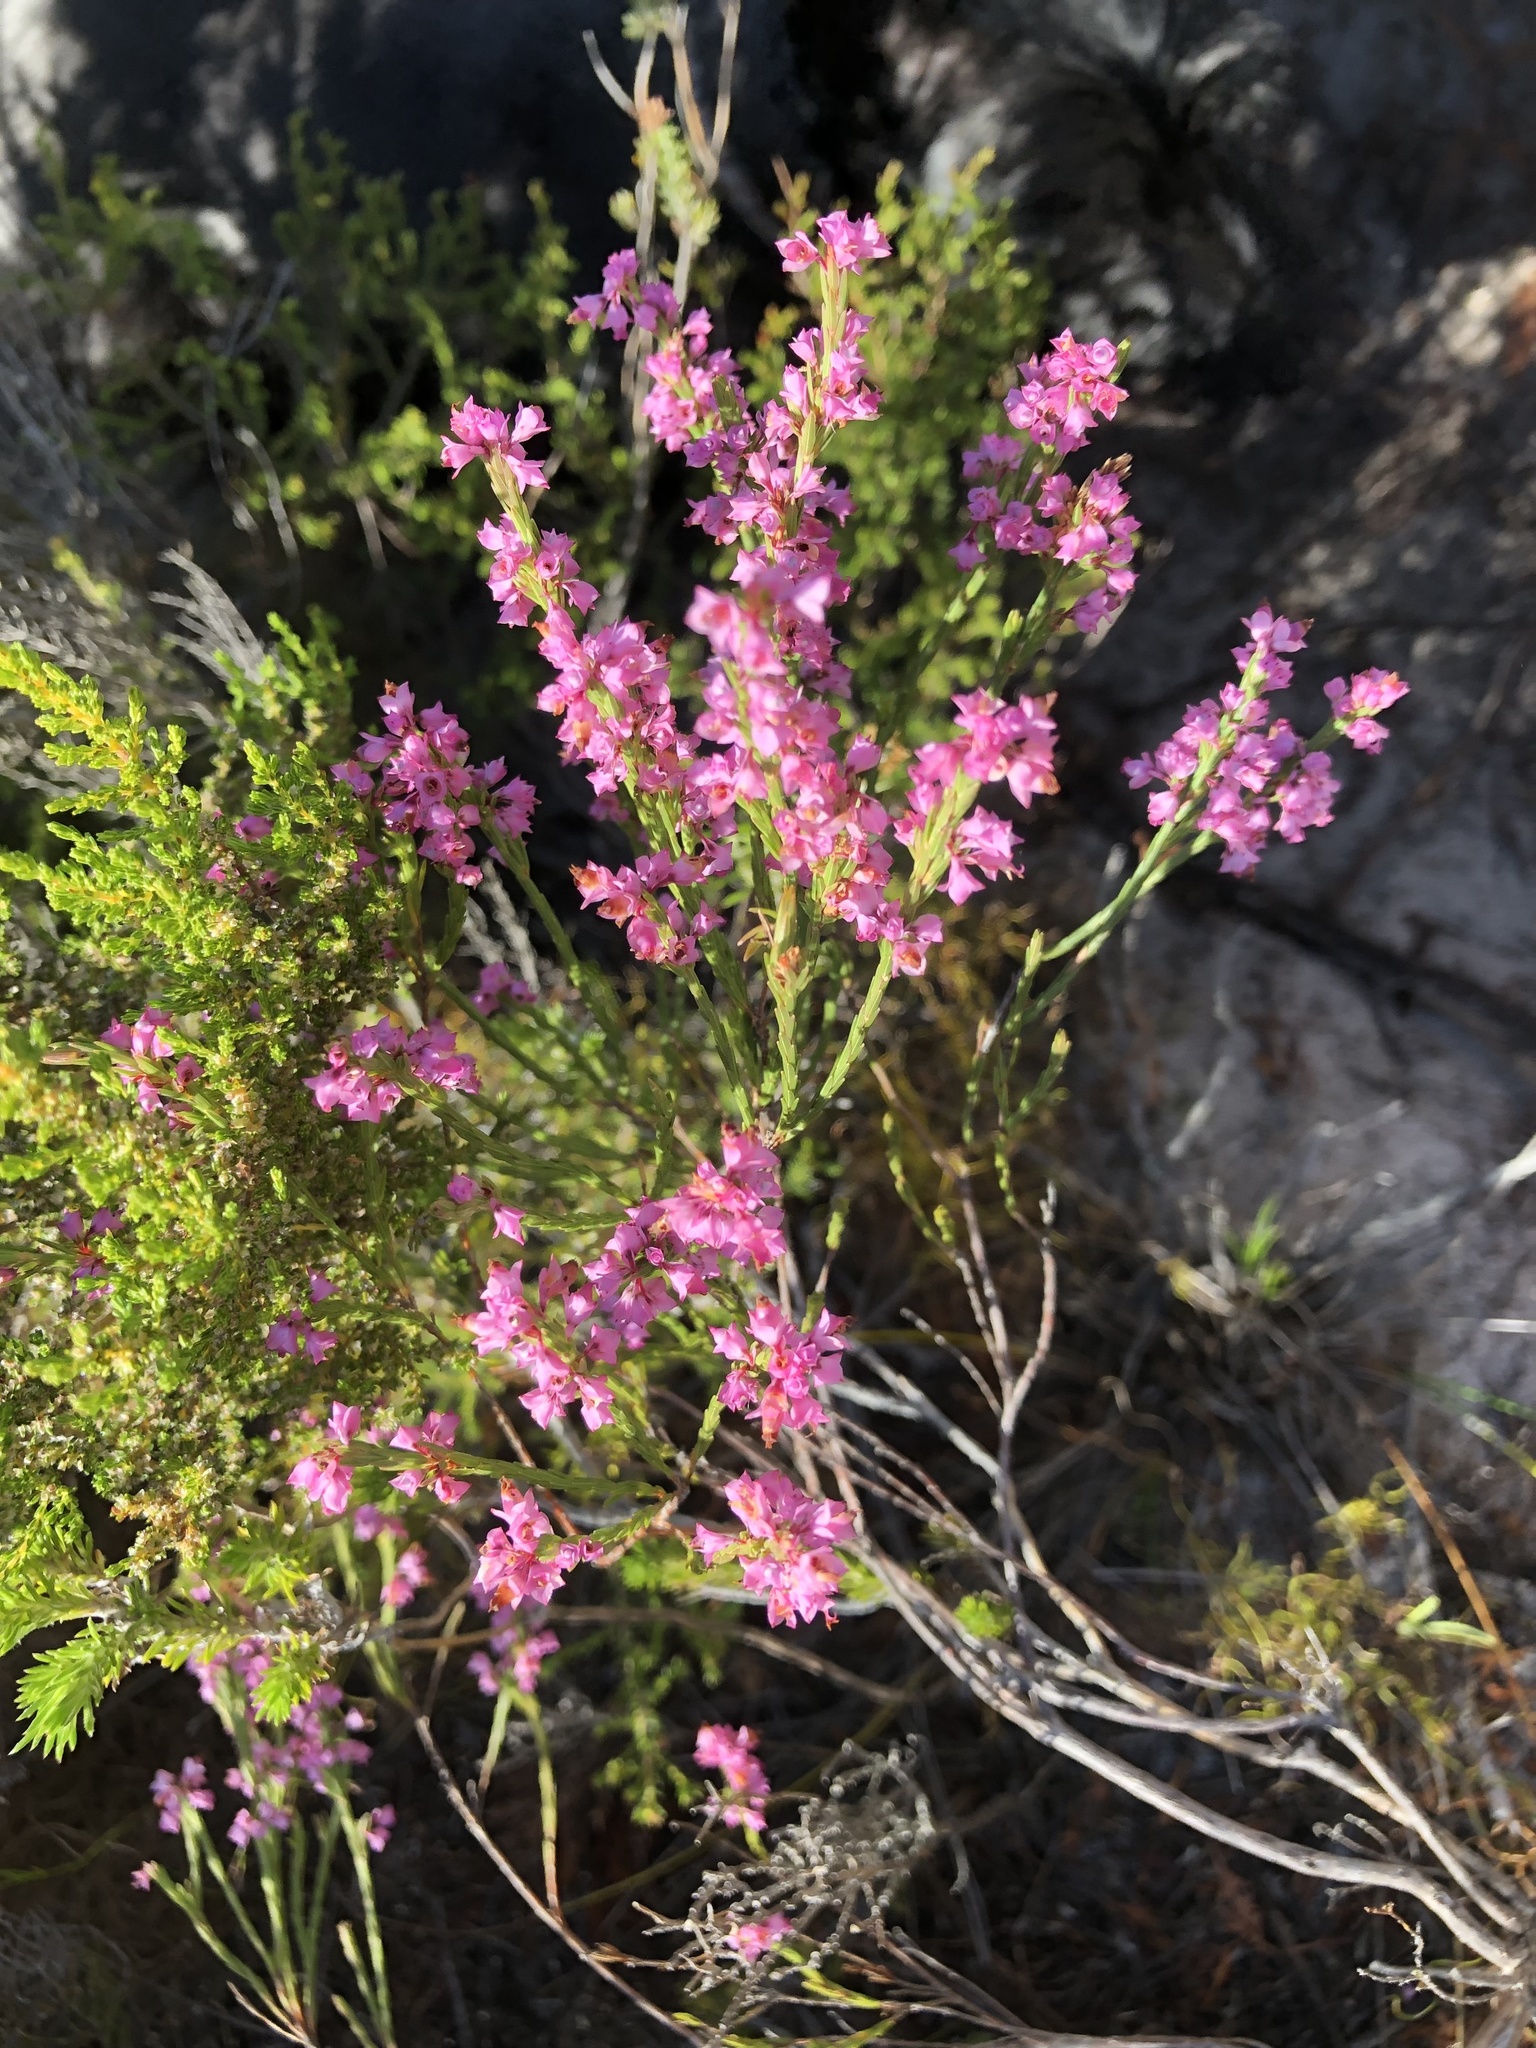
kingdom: Plantae
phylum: Tracheophyta
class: Magnoliopsida
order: Ericales
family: Ericaceae
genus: Erica
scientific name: Erica corifolia
